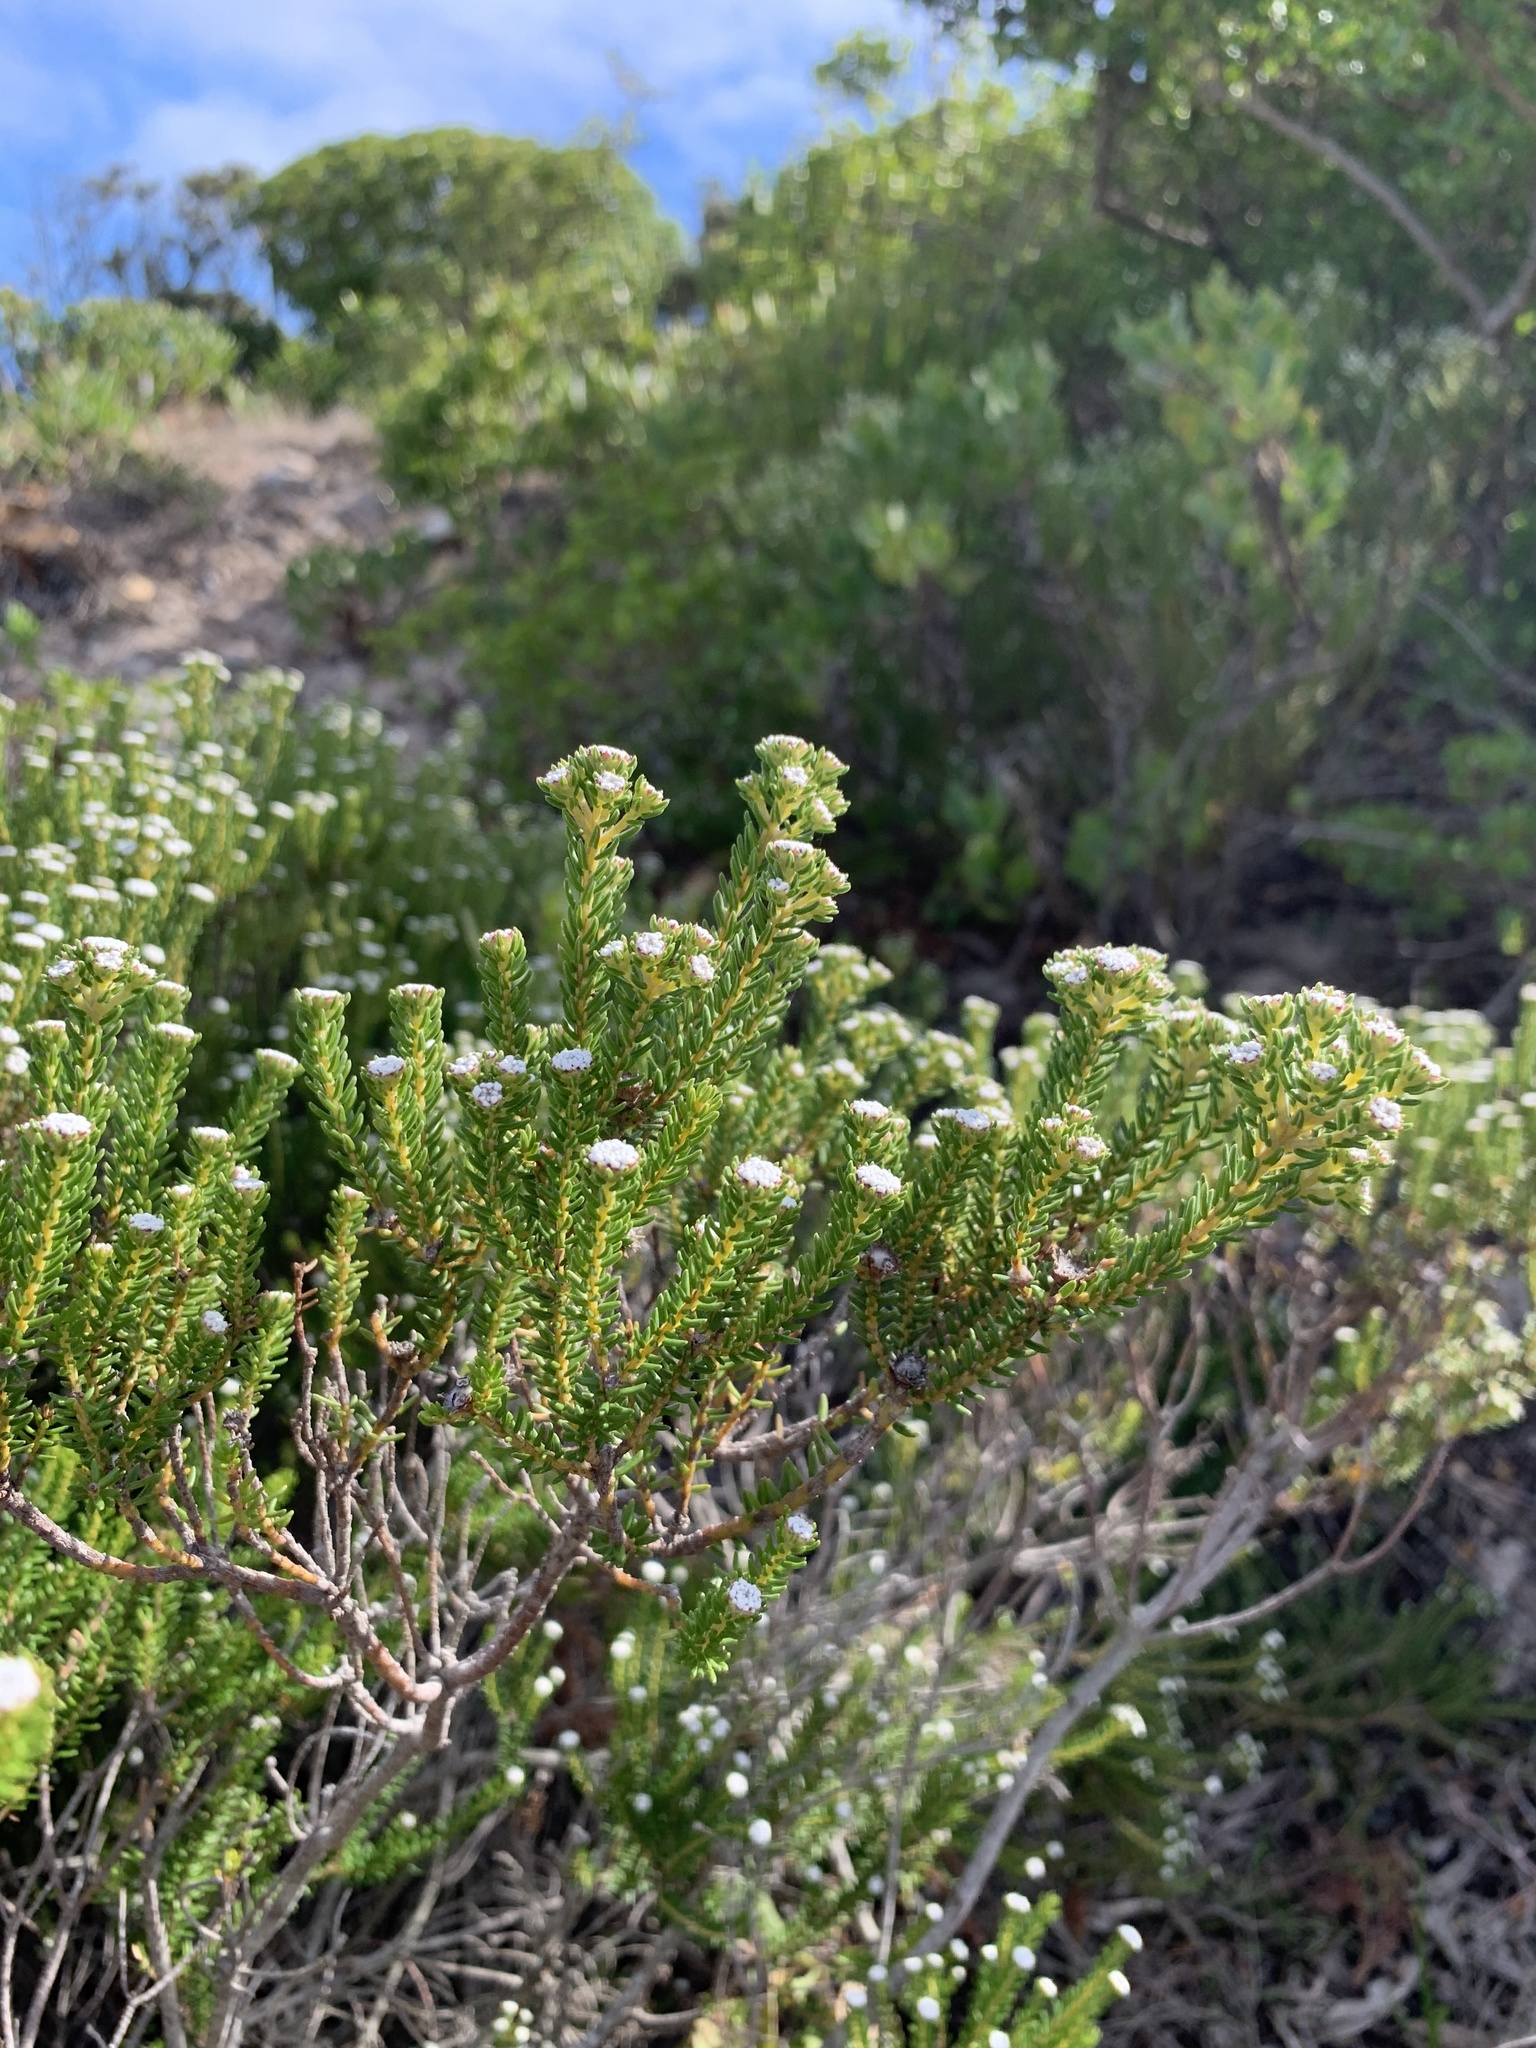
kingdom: Plantae
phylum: Tracheophyta
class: Magnoliopsida
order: Rosales
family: Rhamnaceae
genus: Phylica
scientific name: Phylica ericoides
